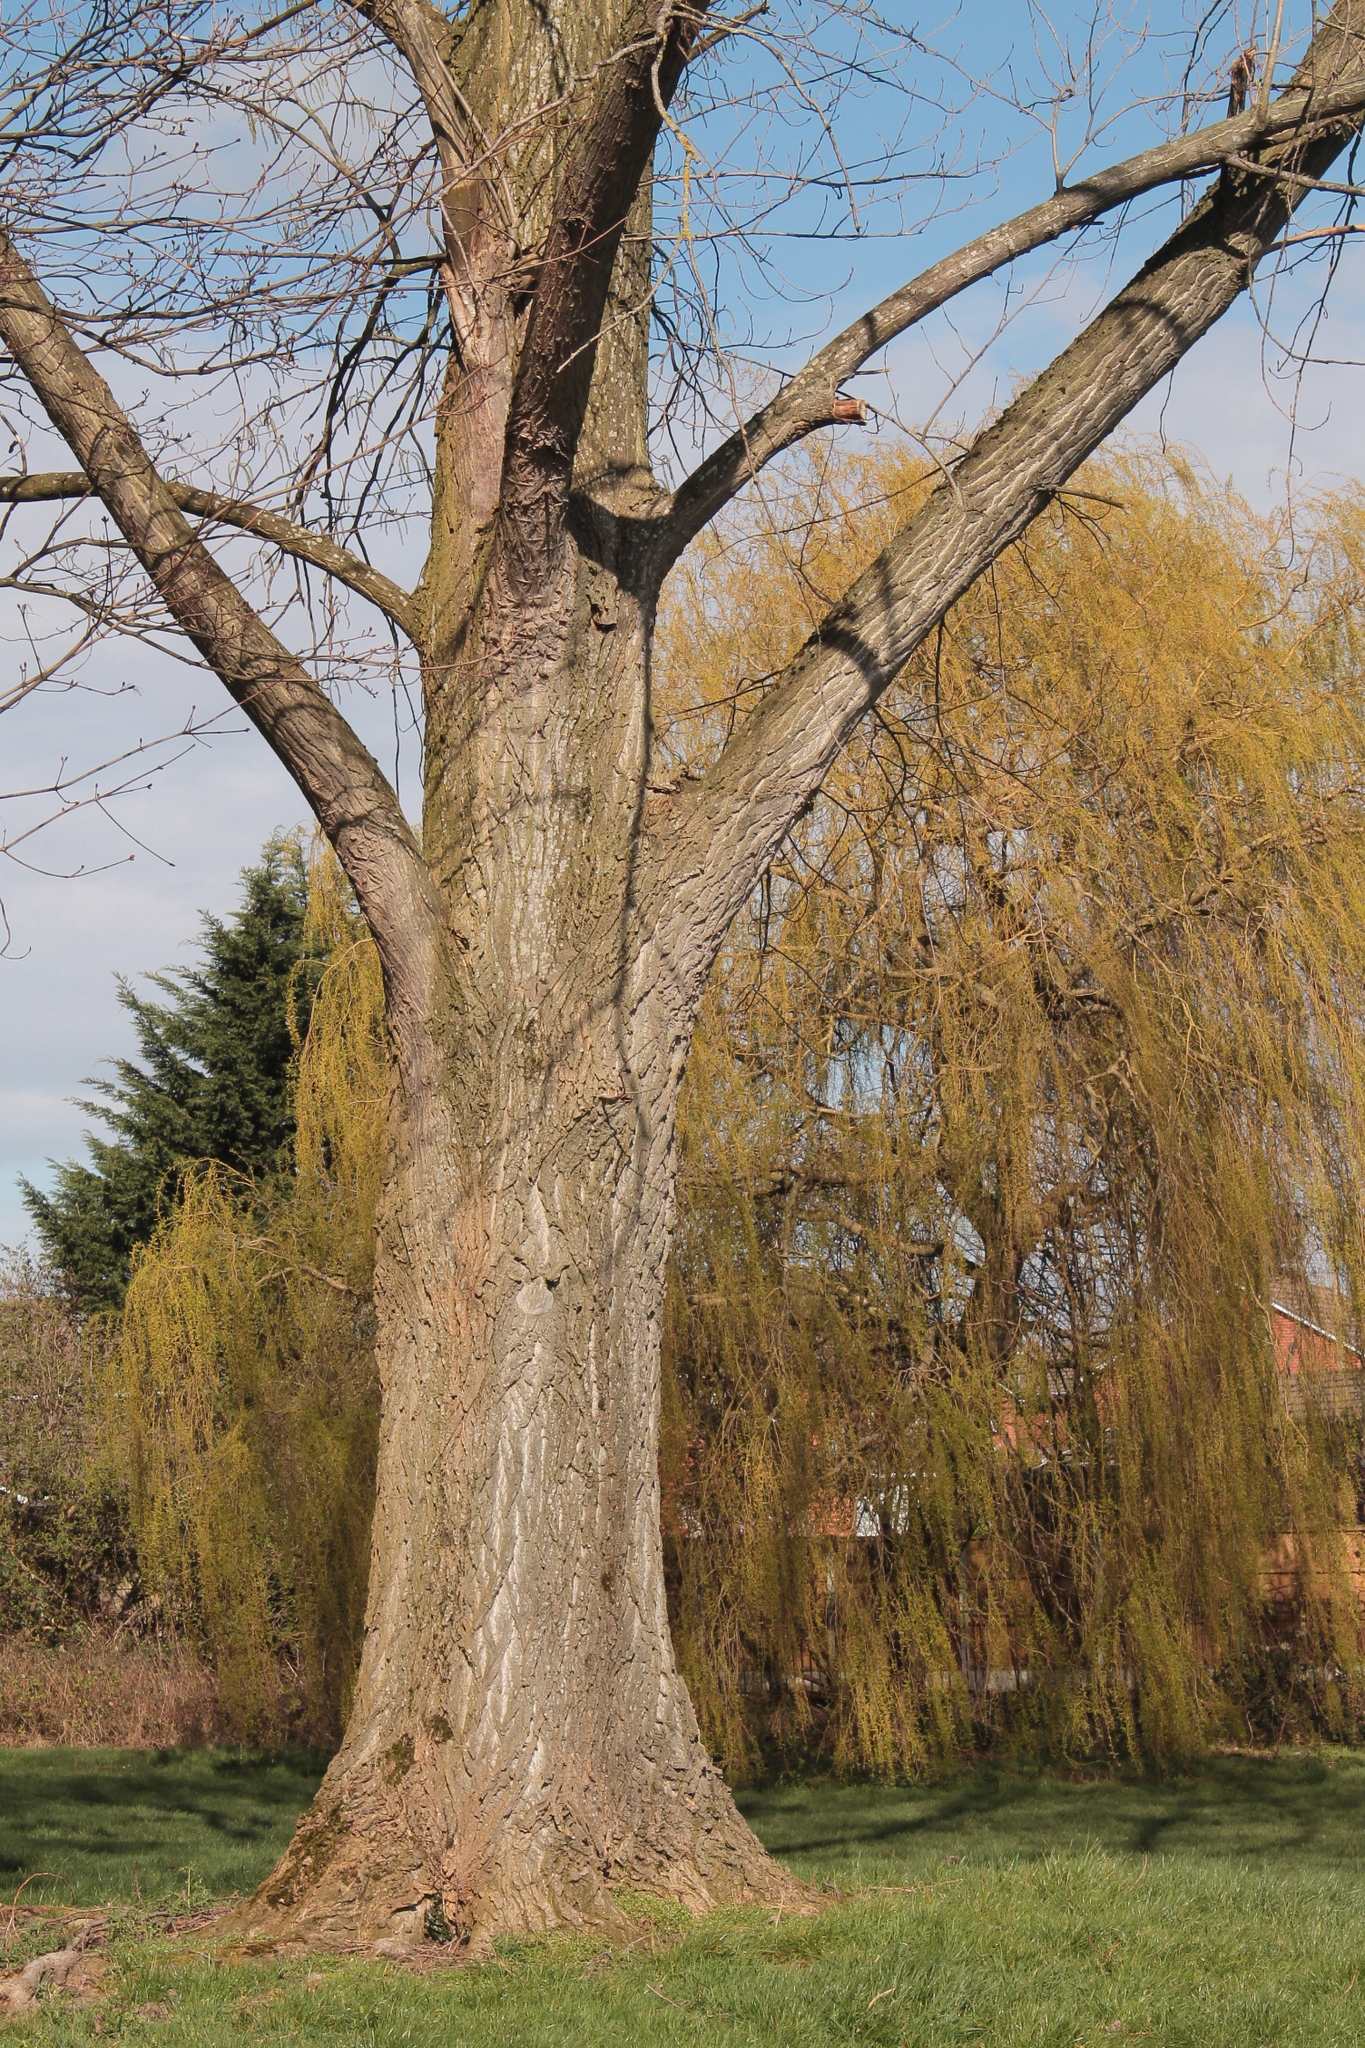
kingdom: Plantae
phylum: Tracheophyta
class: Magnoliopsida
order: Malpighiales
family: Salicaceae
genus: Populus
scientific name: Populus canadensis
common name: Carolina poplar
